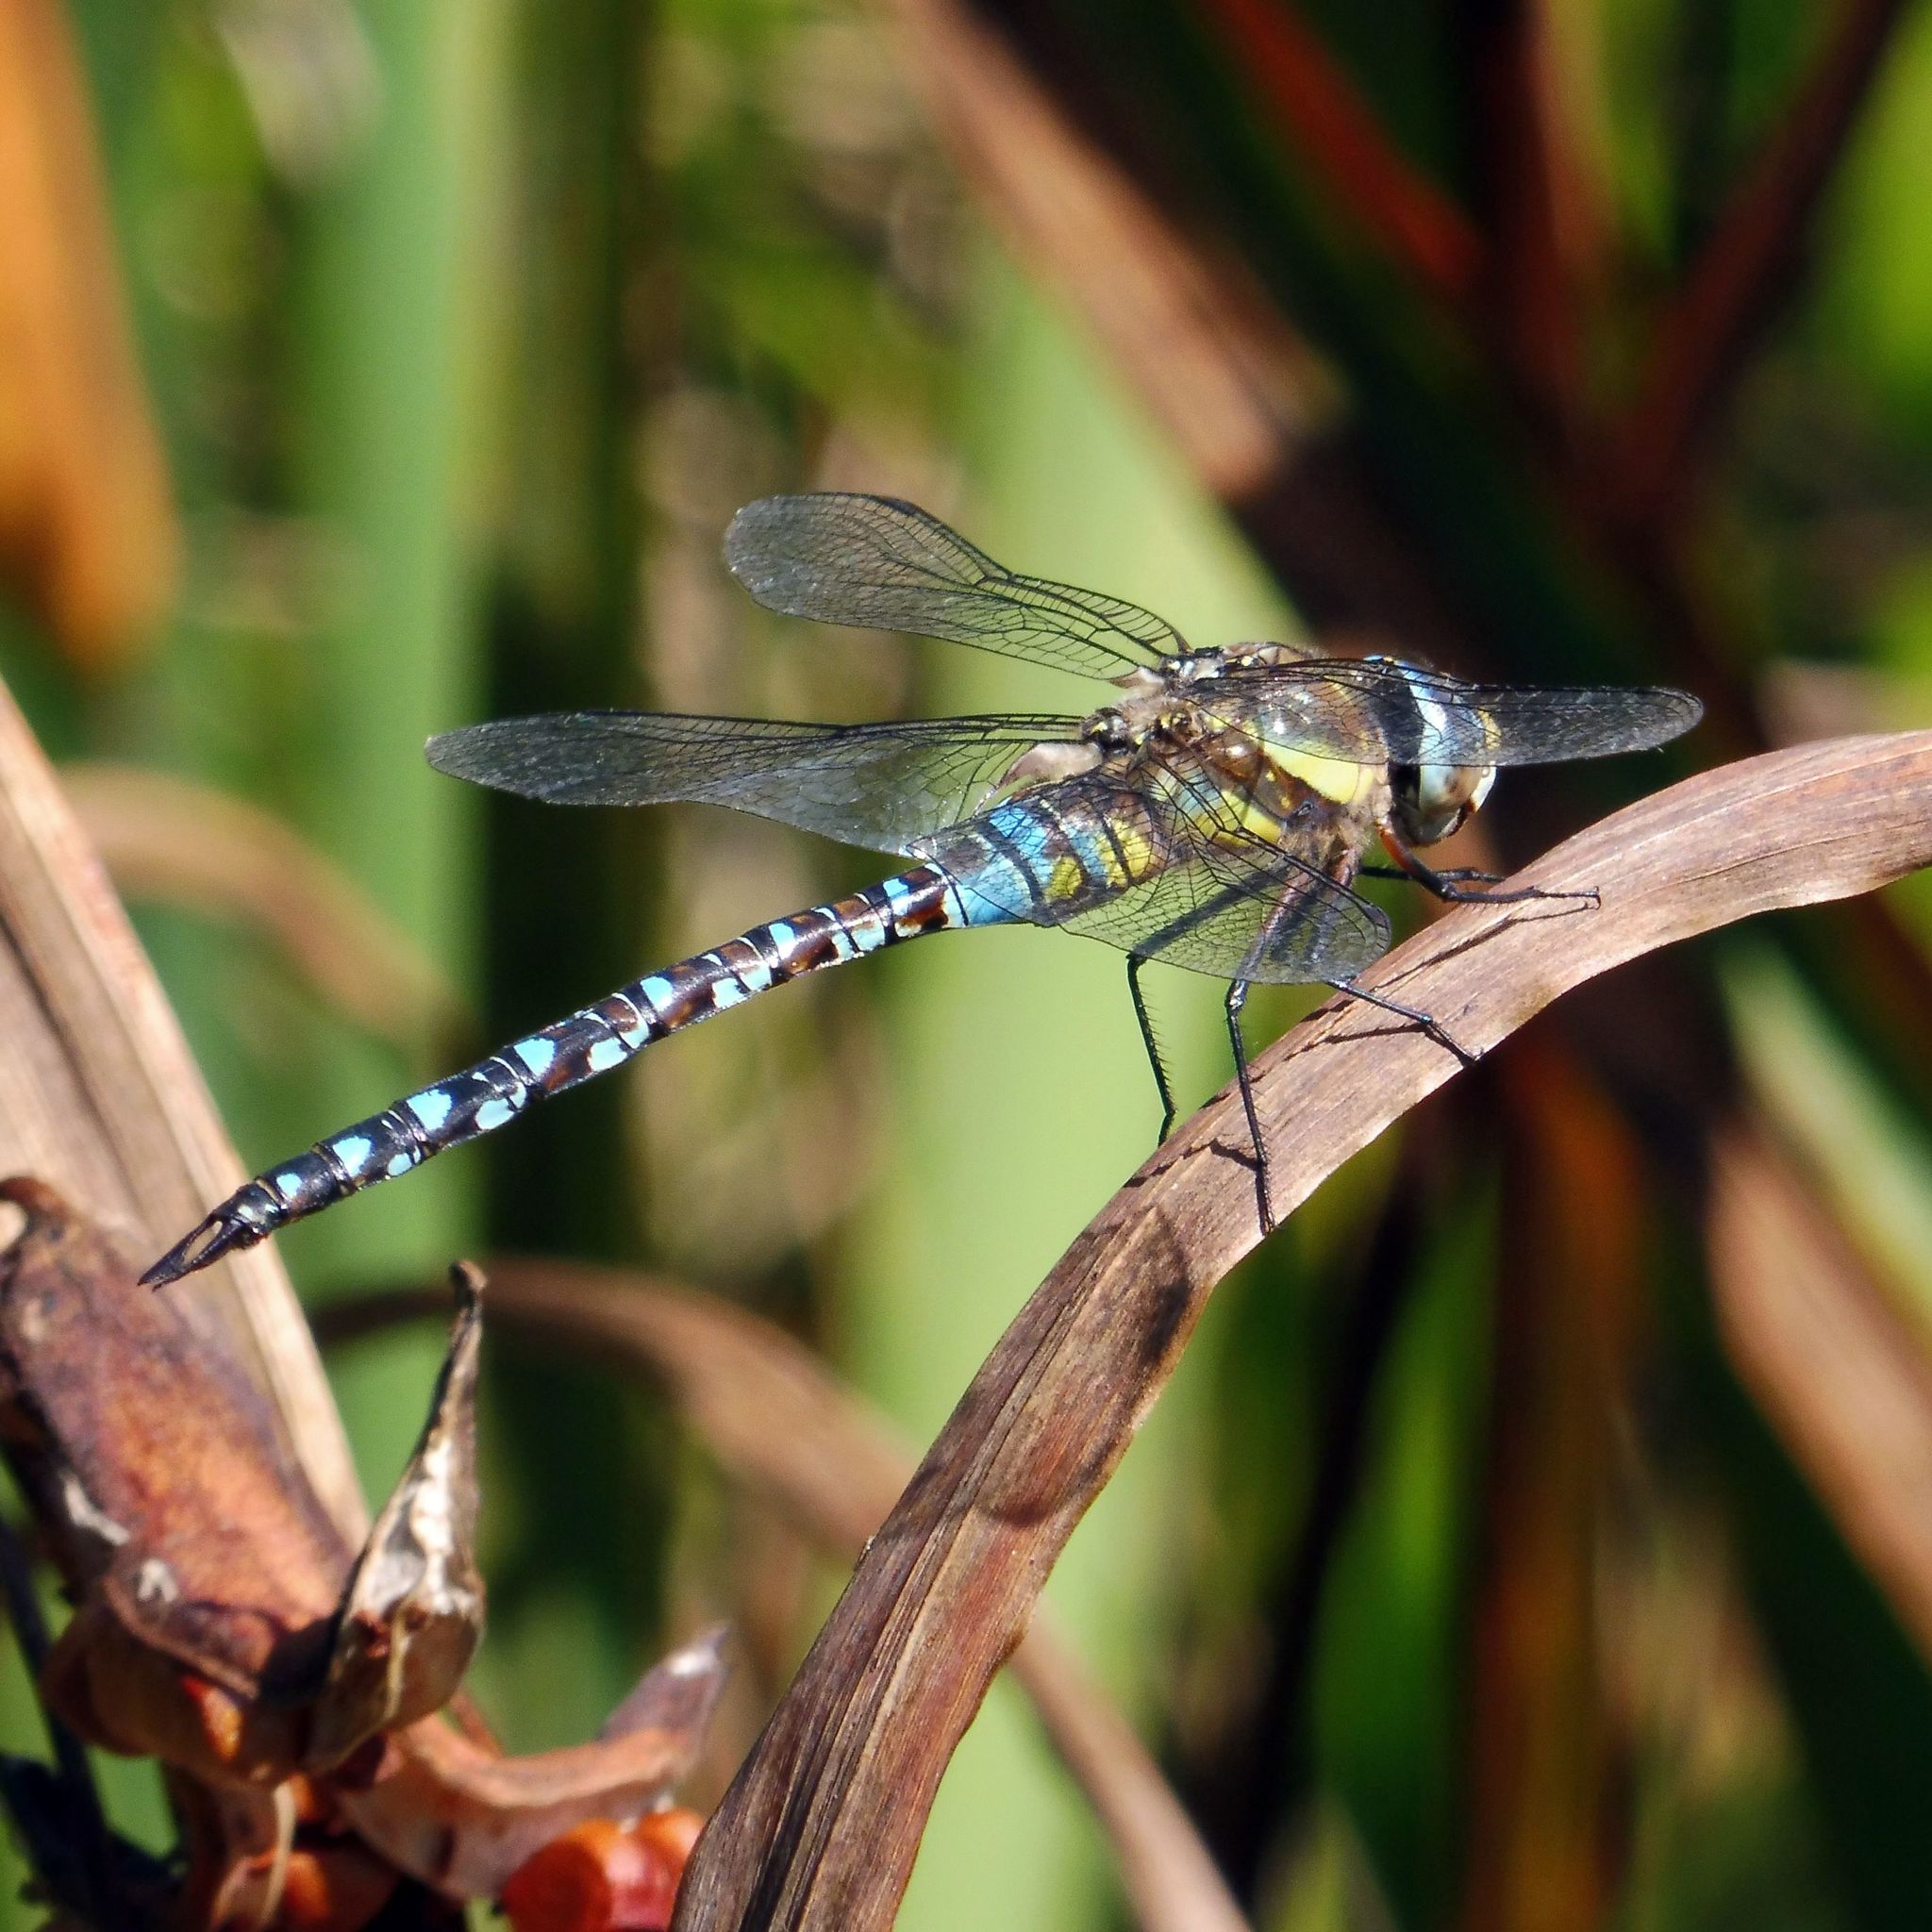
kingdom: Animalia
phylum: Arthropoda
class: Insecta
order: Odonata
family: Aeshnidae
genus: Aeshna
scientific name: Aeshna mixta
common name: Migrant hawker
